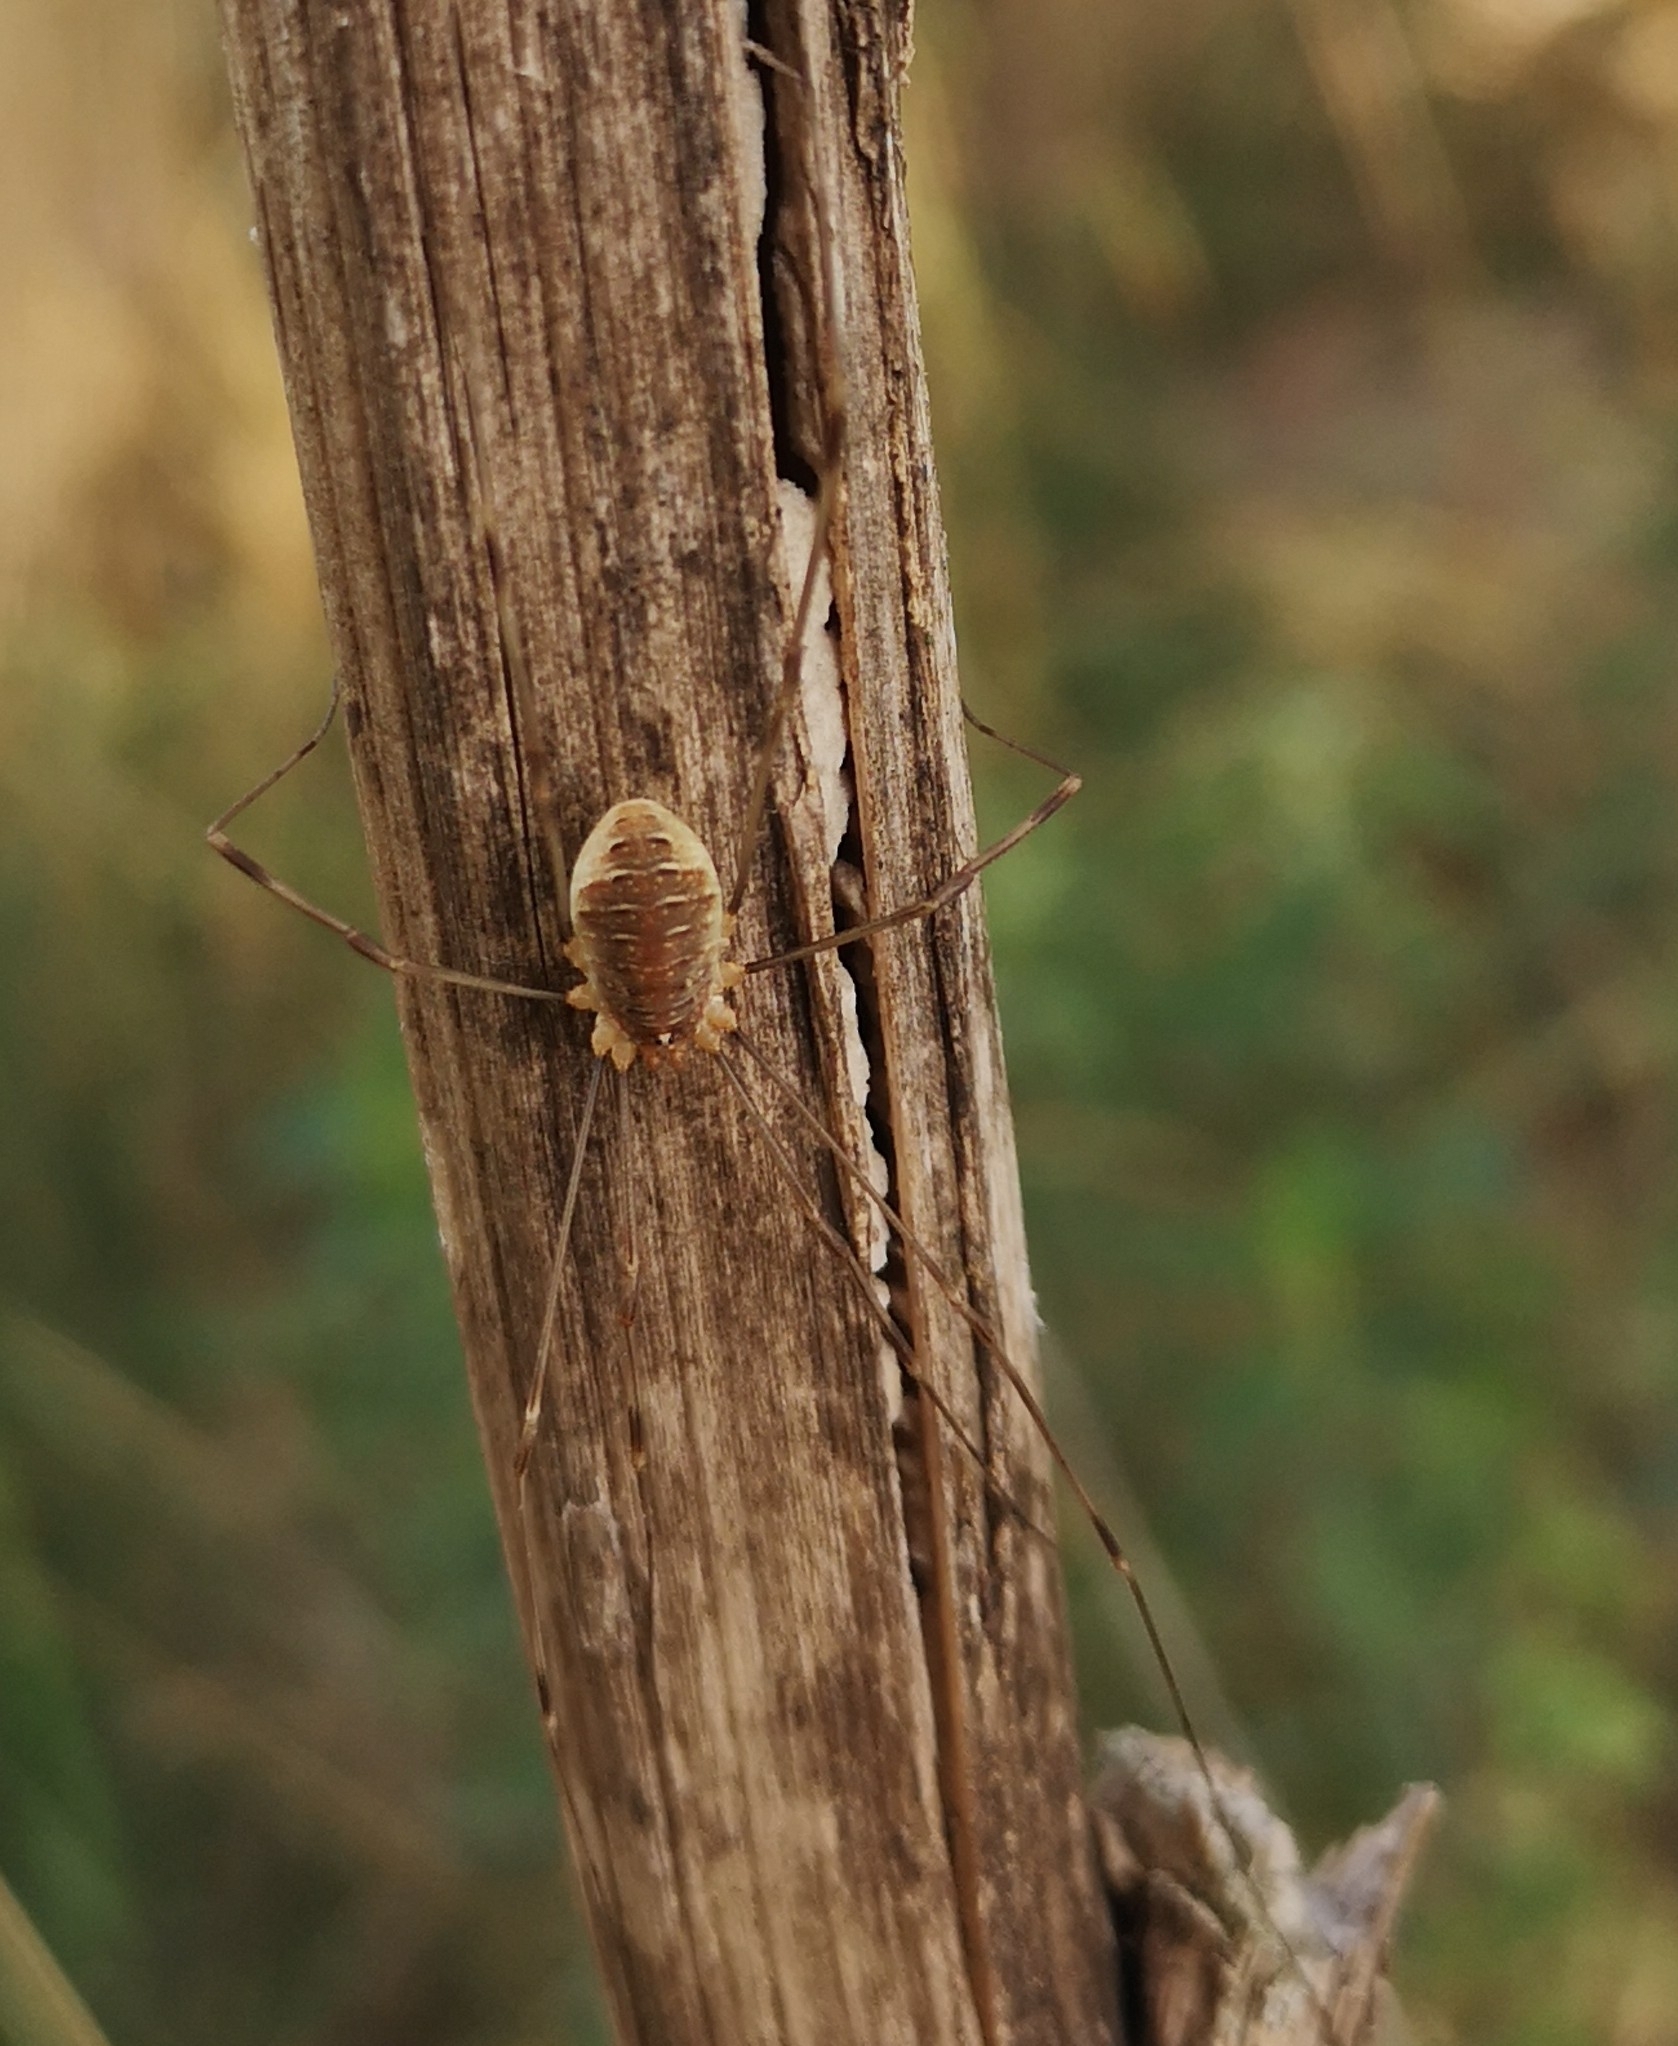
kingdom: Animalia
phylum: Arthropoda
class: Arachnida
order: Opiliones
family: Phalangiidae
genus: Opilio
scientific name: Opilio canestrinii
